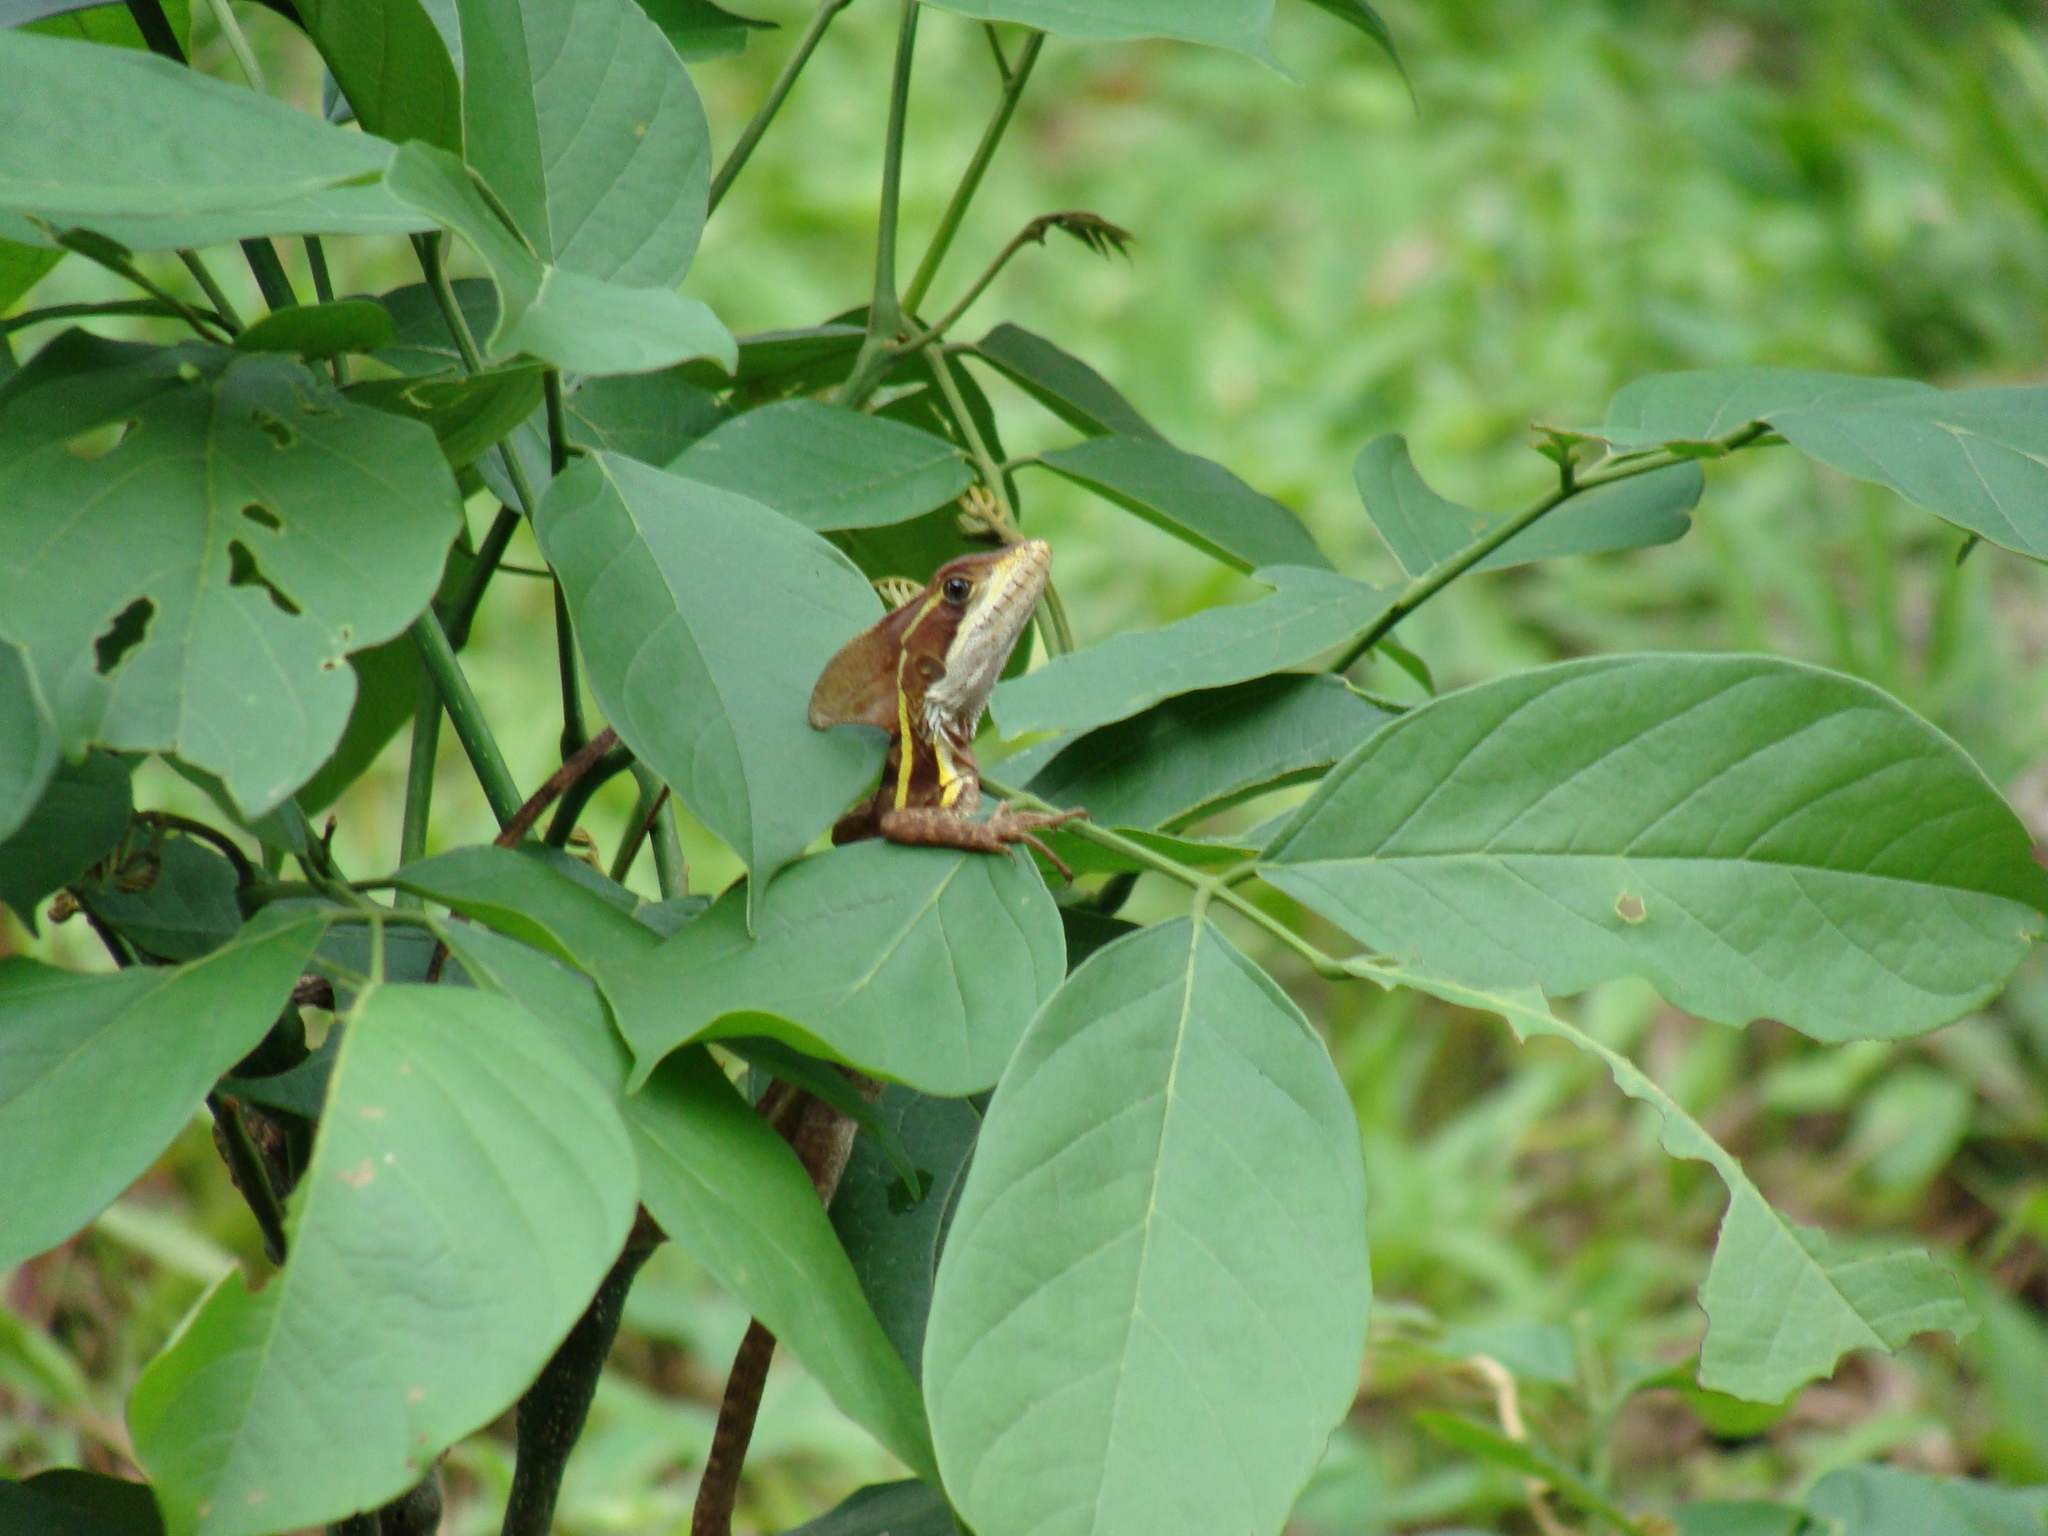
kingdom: Animalia
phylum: Chordata
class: Squamata
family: Corytophanidae
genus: Basiliscus
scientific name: Basiliscus vittatus
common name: Brown basilisk
